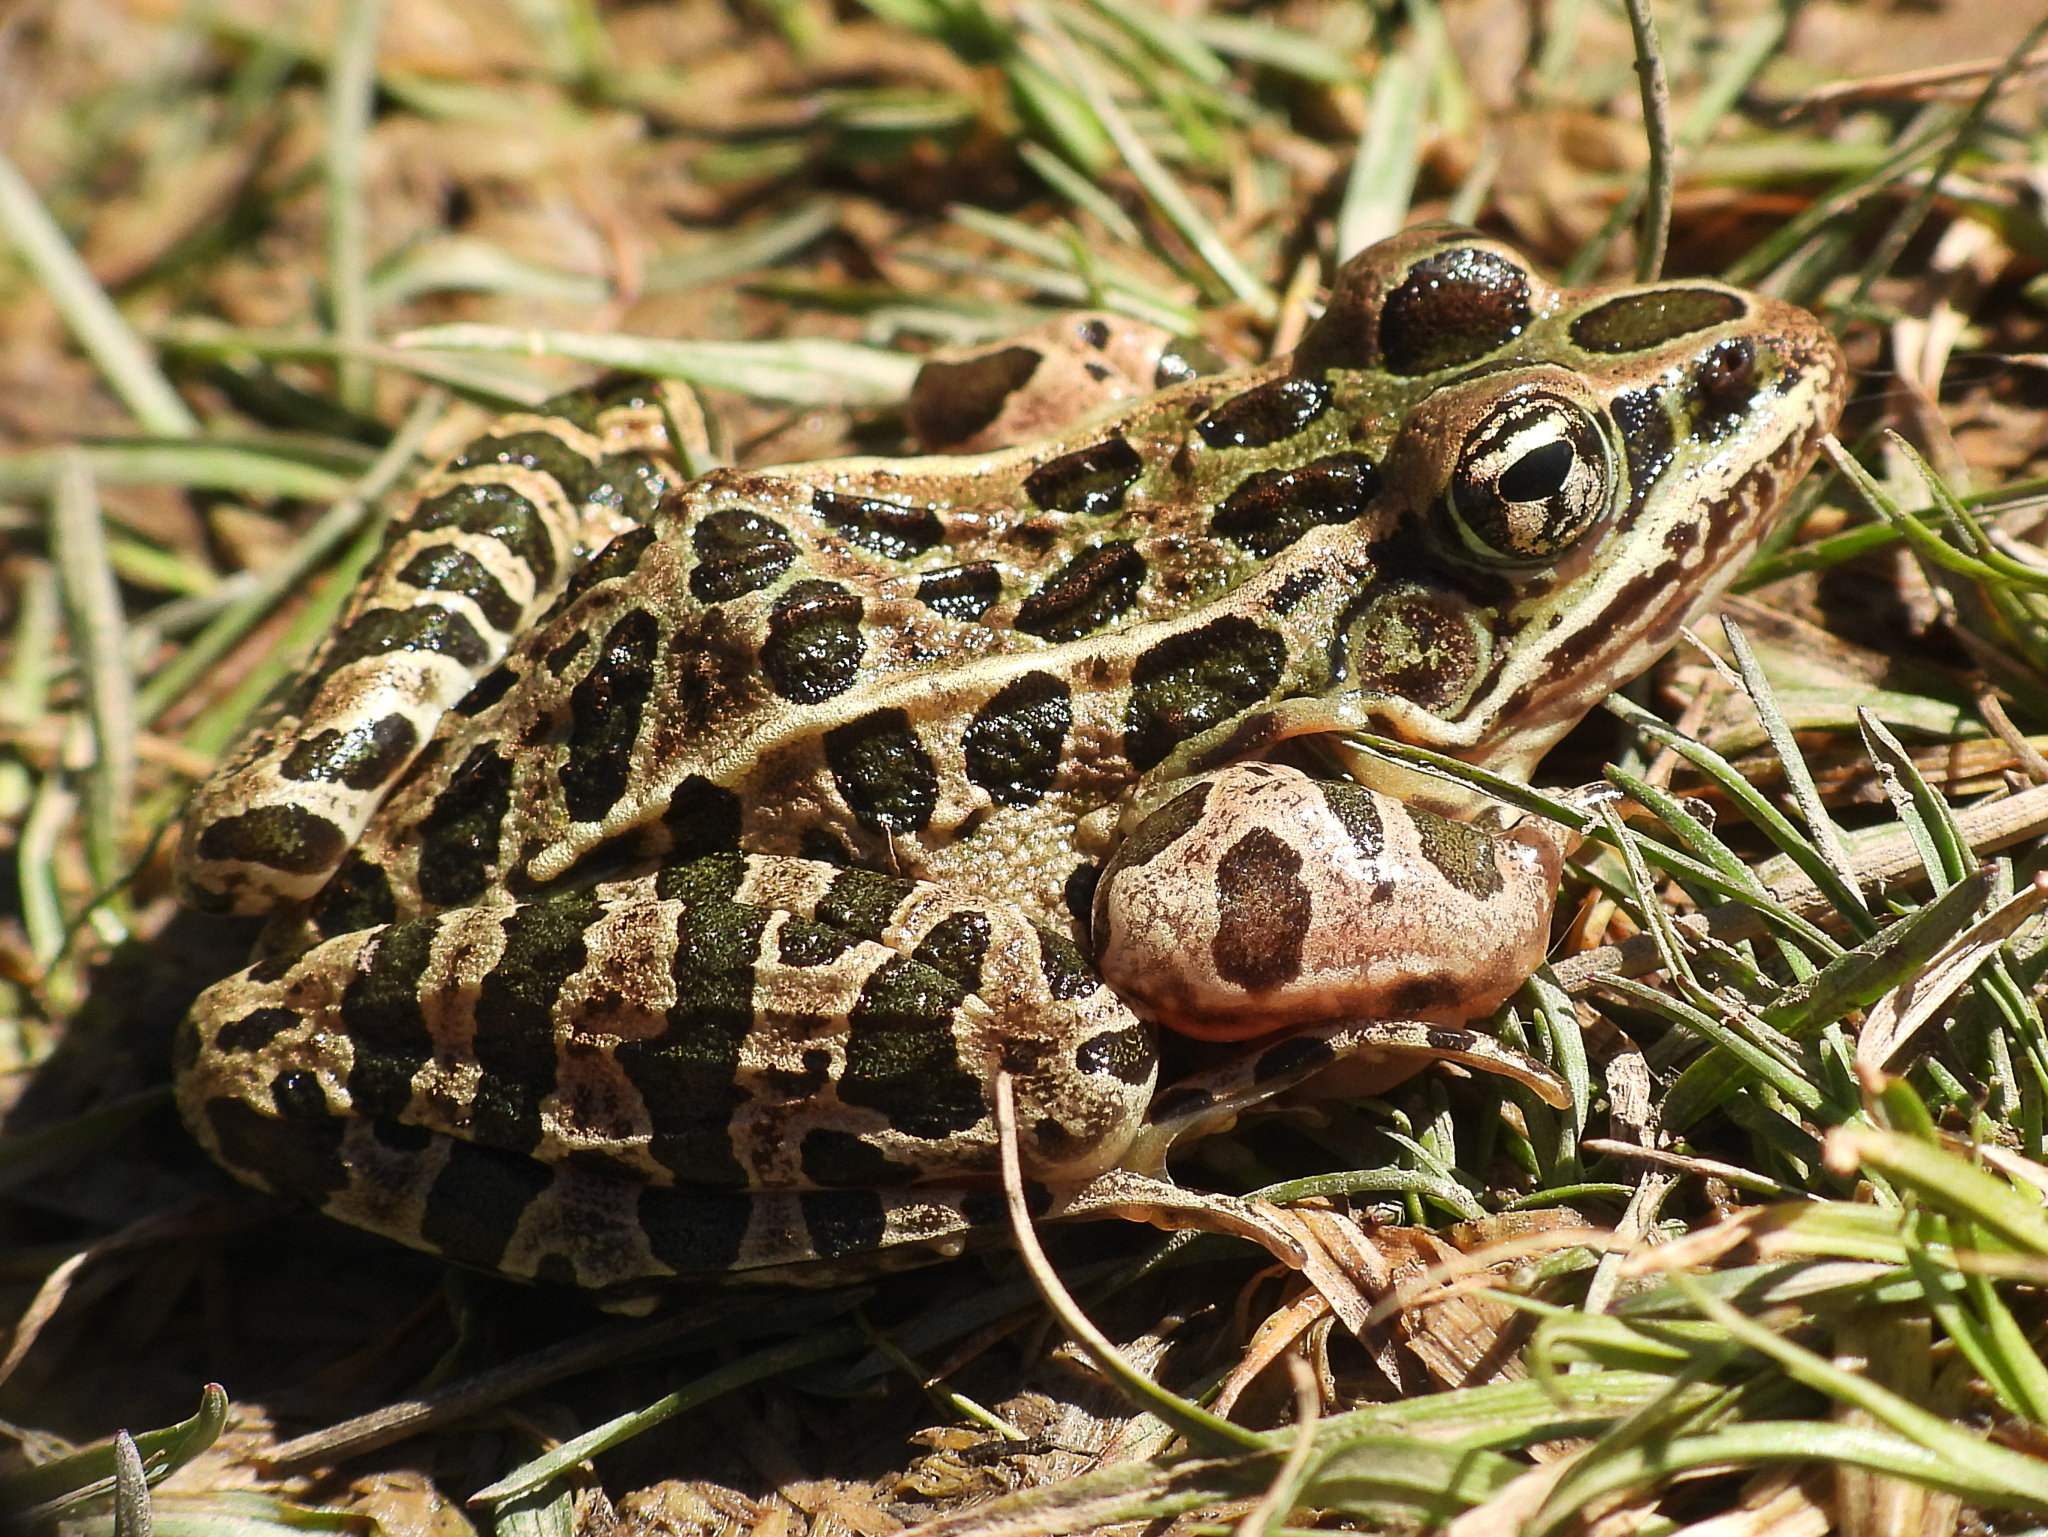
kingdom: Animalia
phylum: Chordata
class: Amphibia
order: Anura
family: Ranidae
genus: Lithobates
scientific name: Lithobates pipiens
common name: Northern leopard frog
